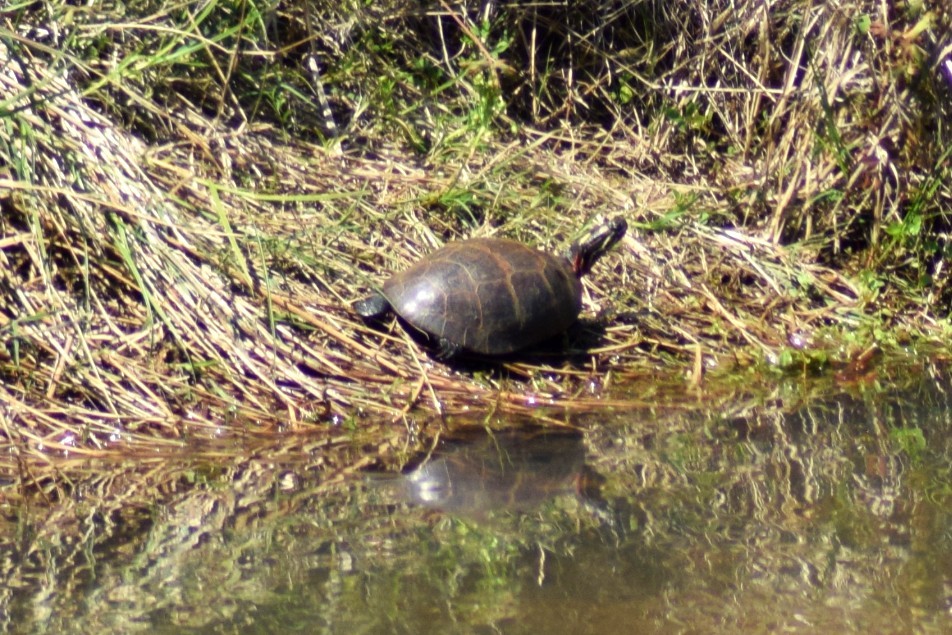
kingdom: Animalia
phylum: Chordata
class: Testudines
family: Emydidae
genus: Chrysemys
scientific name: Chrysemys picta
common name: Painted turtle
